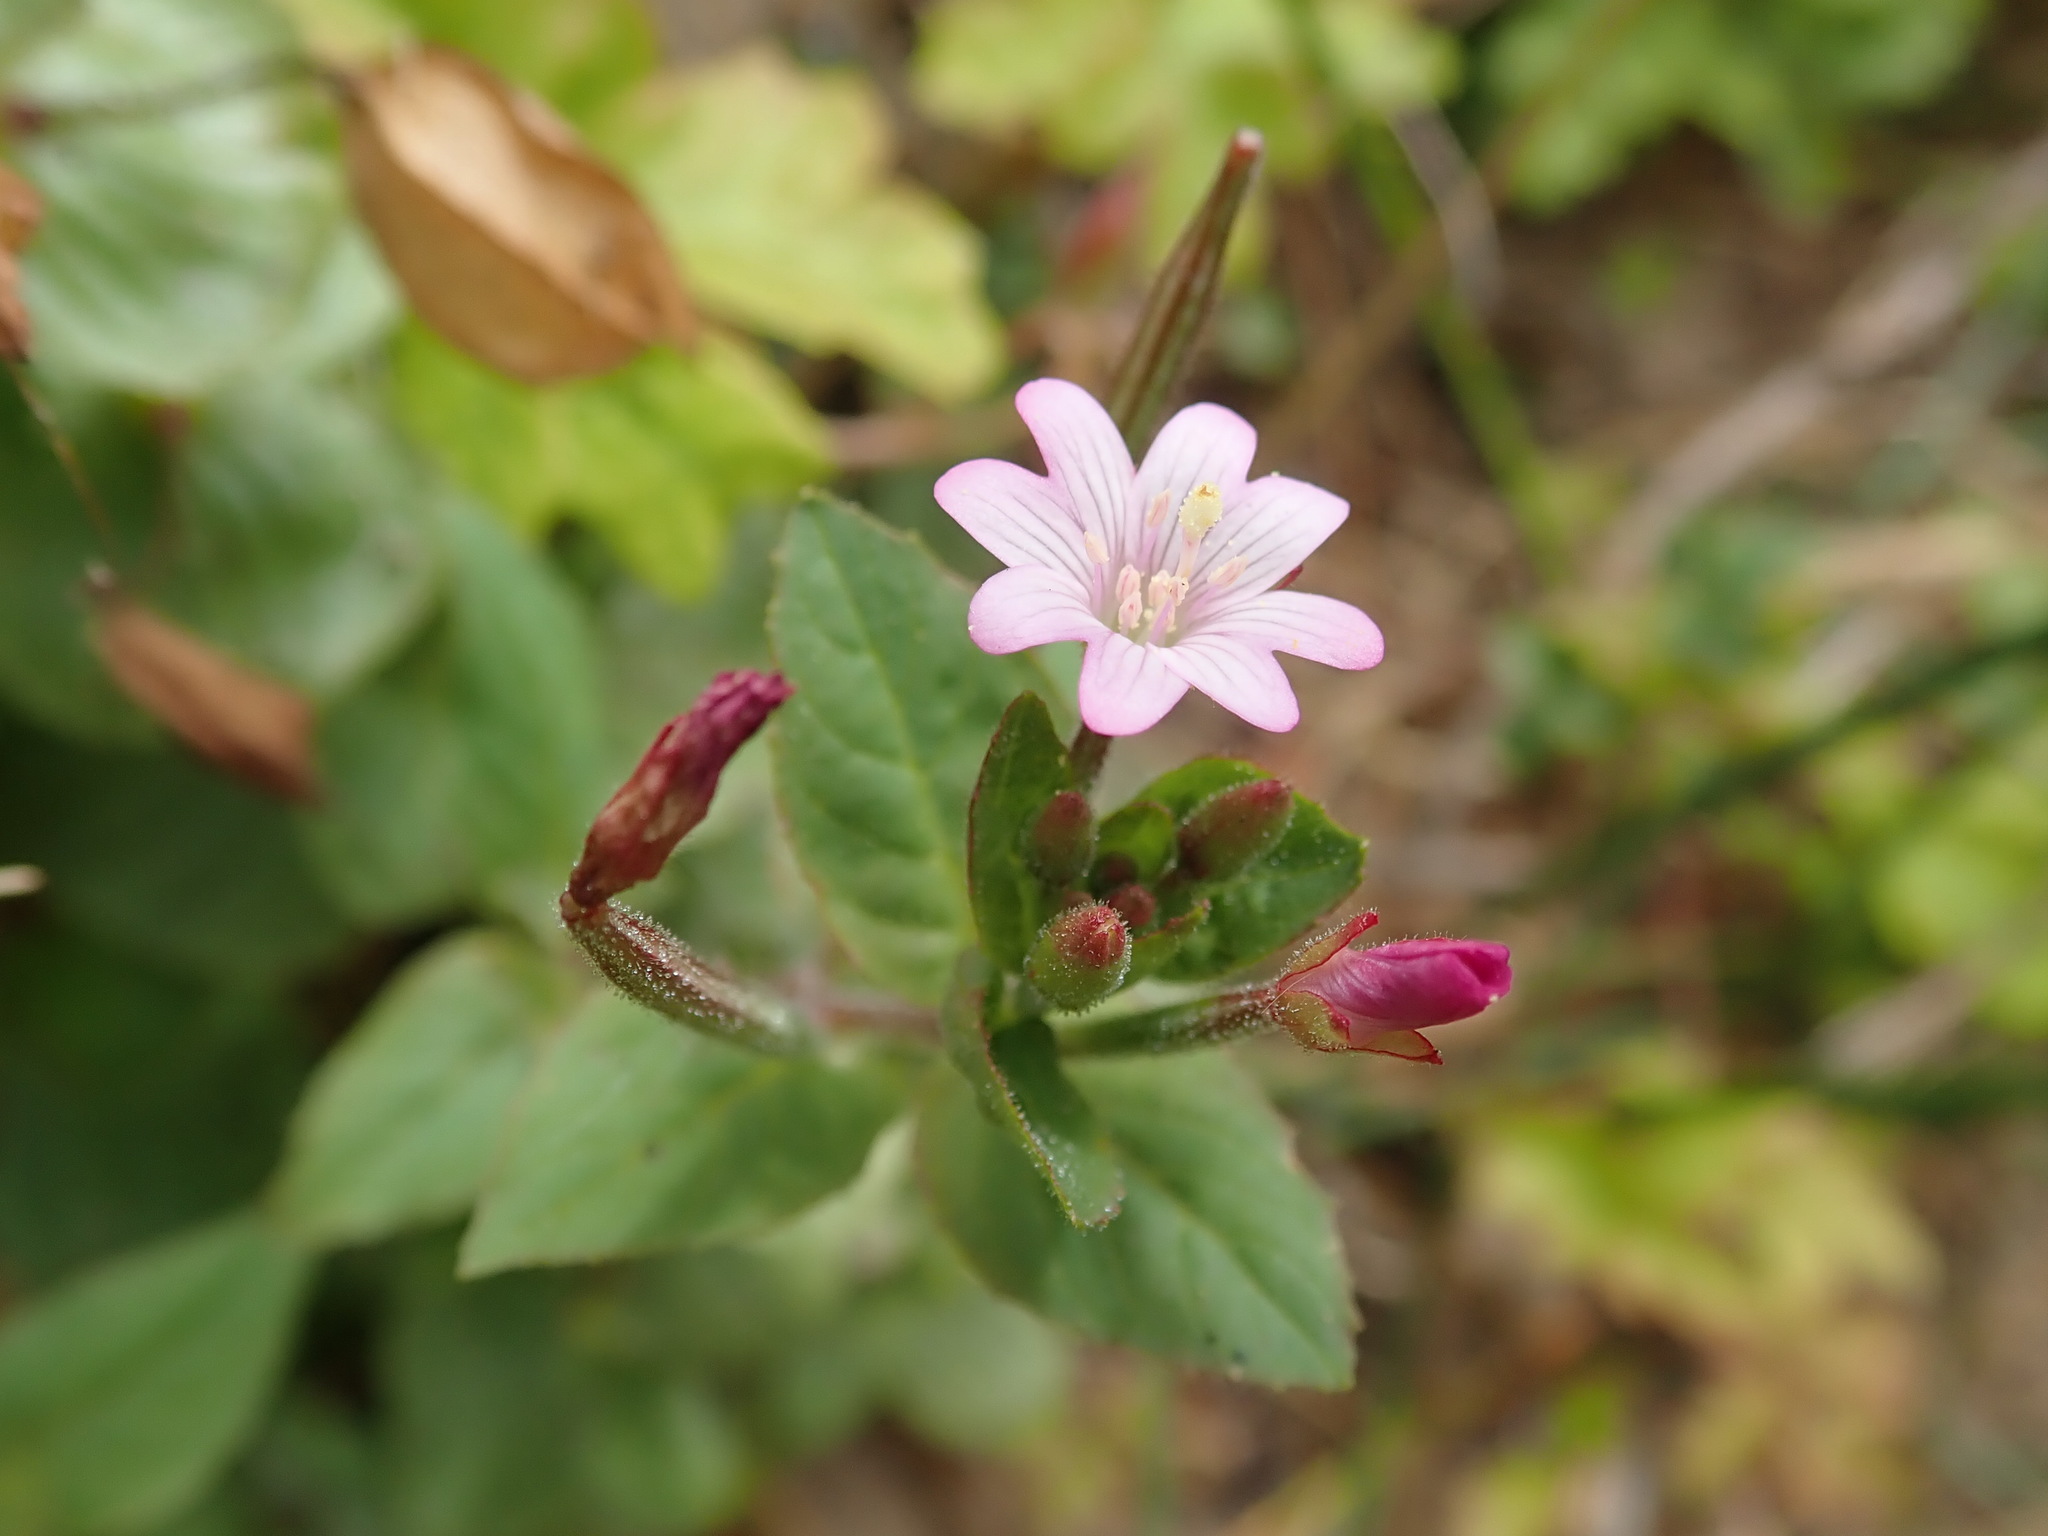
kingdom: Plantae
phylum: Tracheophyta
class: Magnoliopsida
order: Myrtales
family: Onagraceae
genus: Epilobium
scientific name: Epilobium ciliatum
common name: American willowherb
